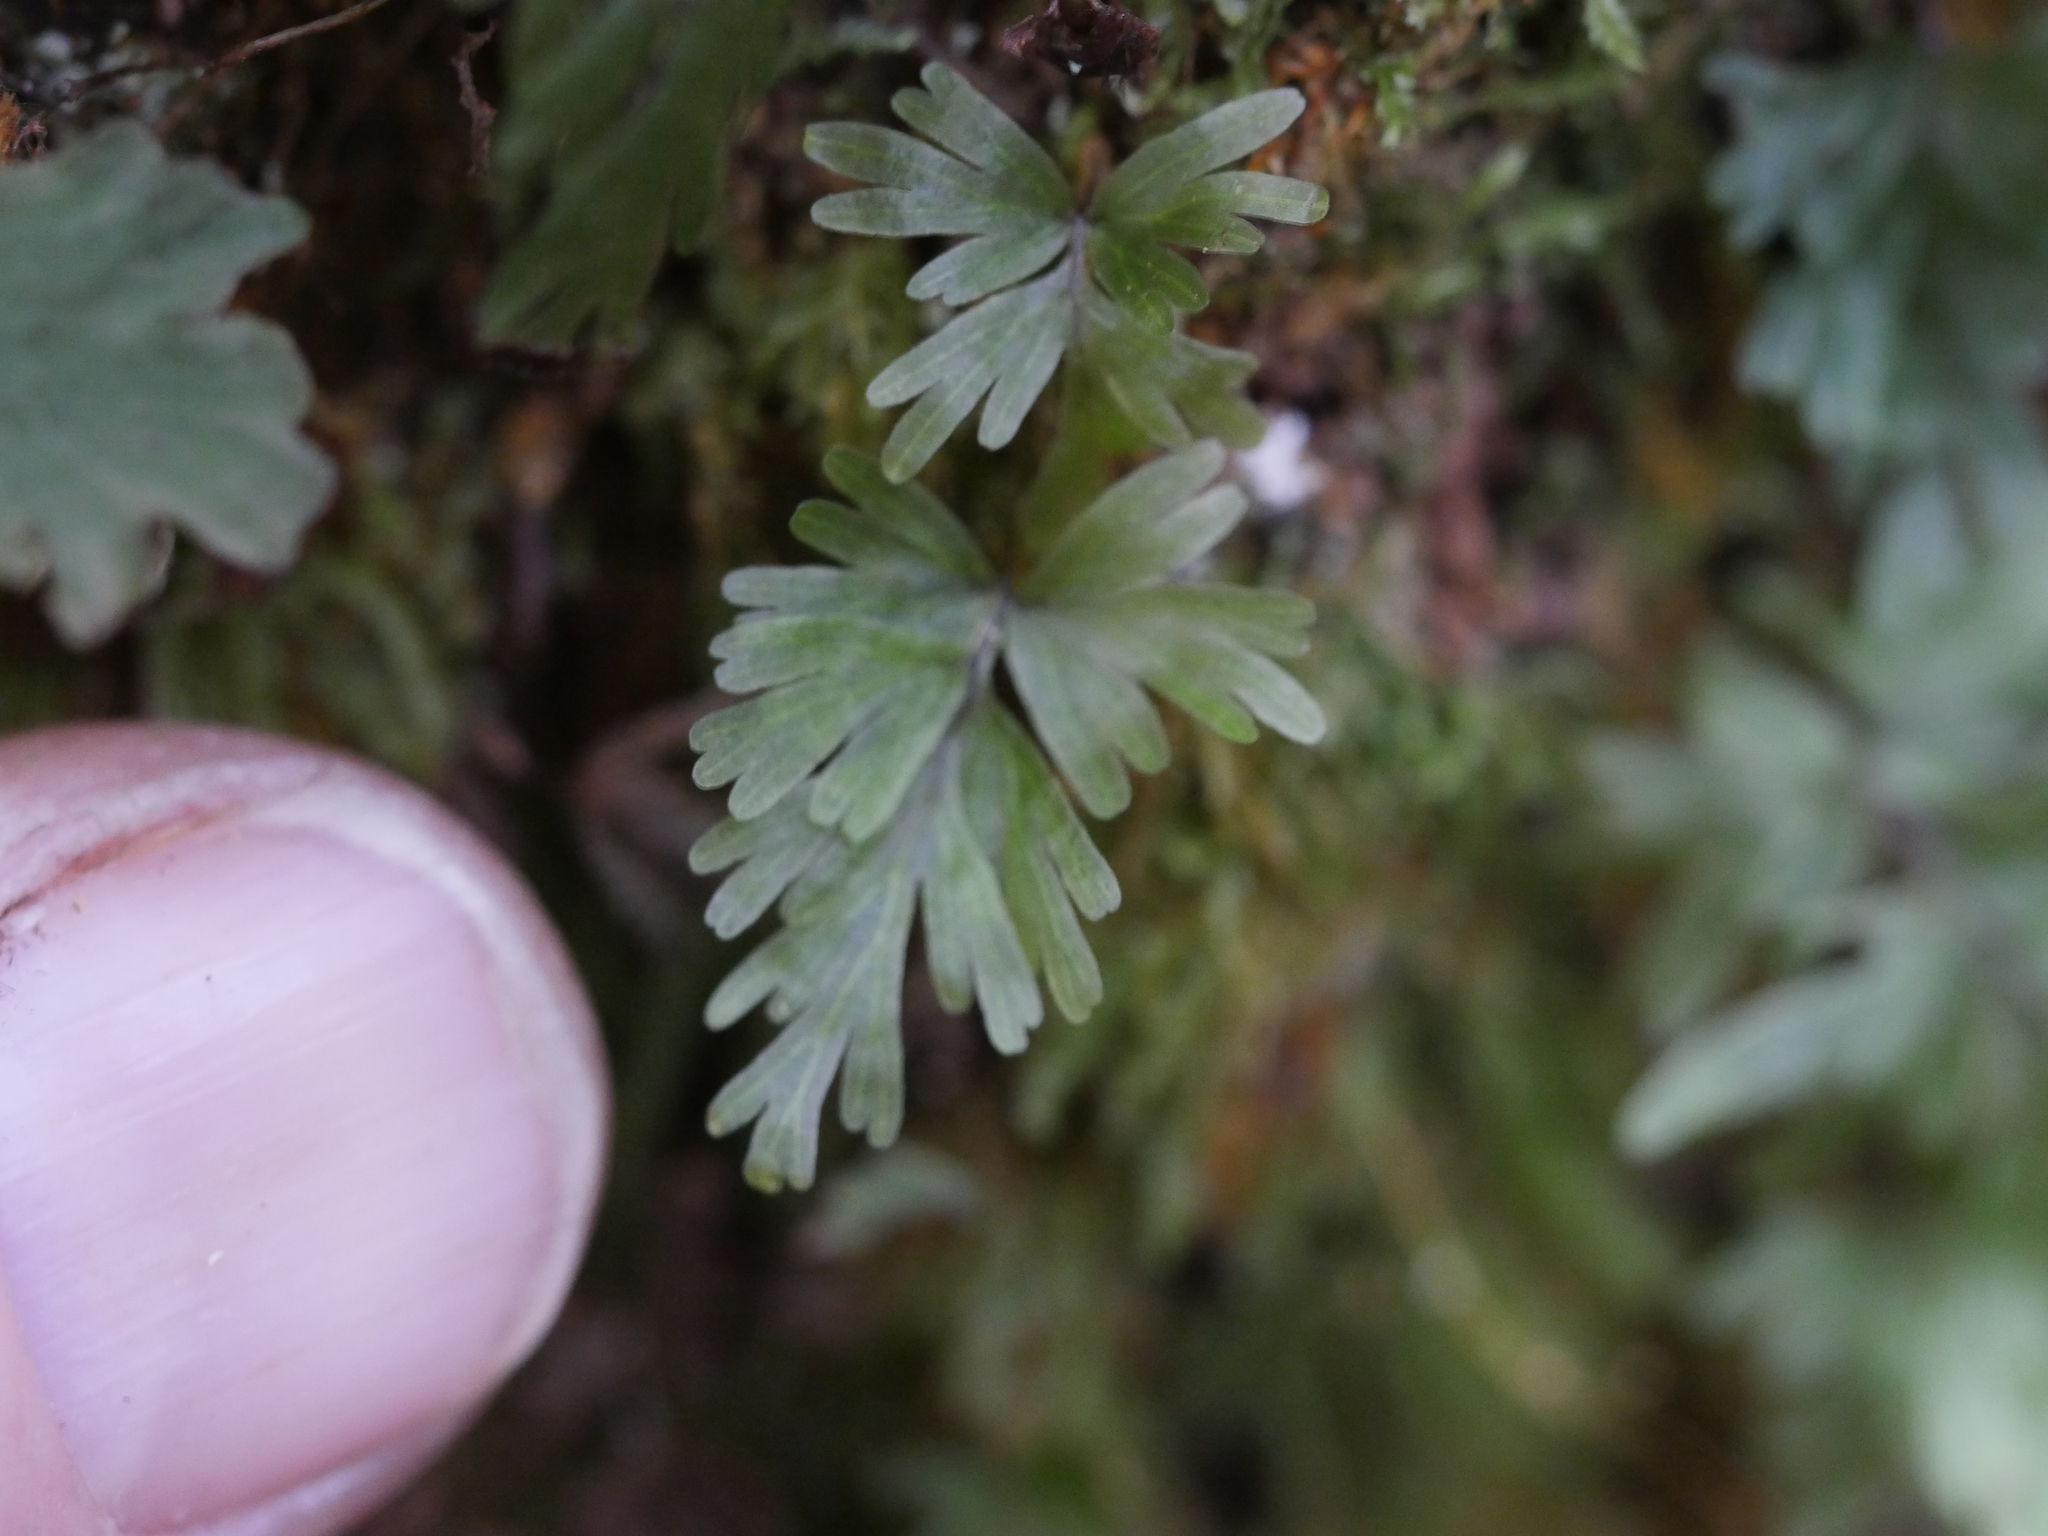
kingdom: Plantae
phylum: Tracheophyta
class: Polypodiopsida
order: Hymenophyllales
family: Hymenophyllaceae
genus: Hymenophyllum
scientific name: Hymenophyllum flabellatum
